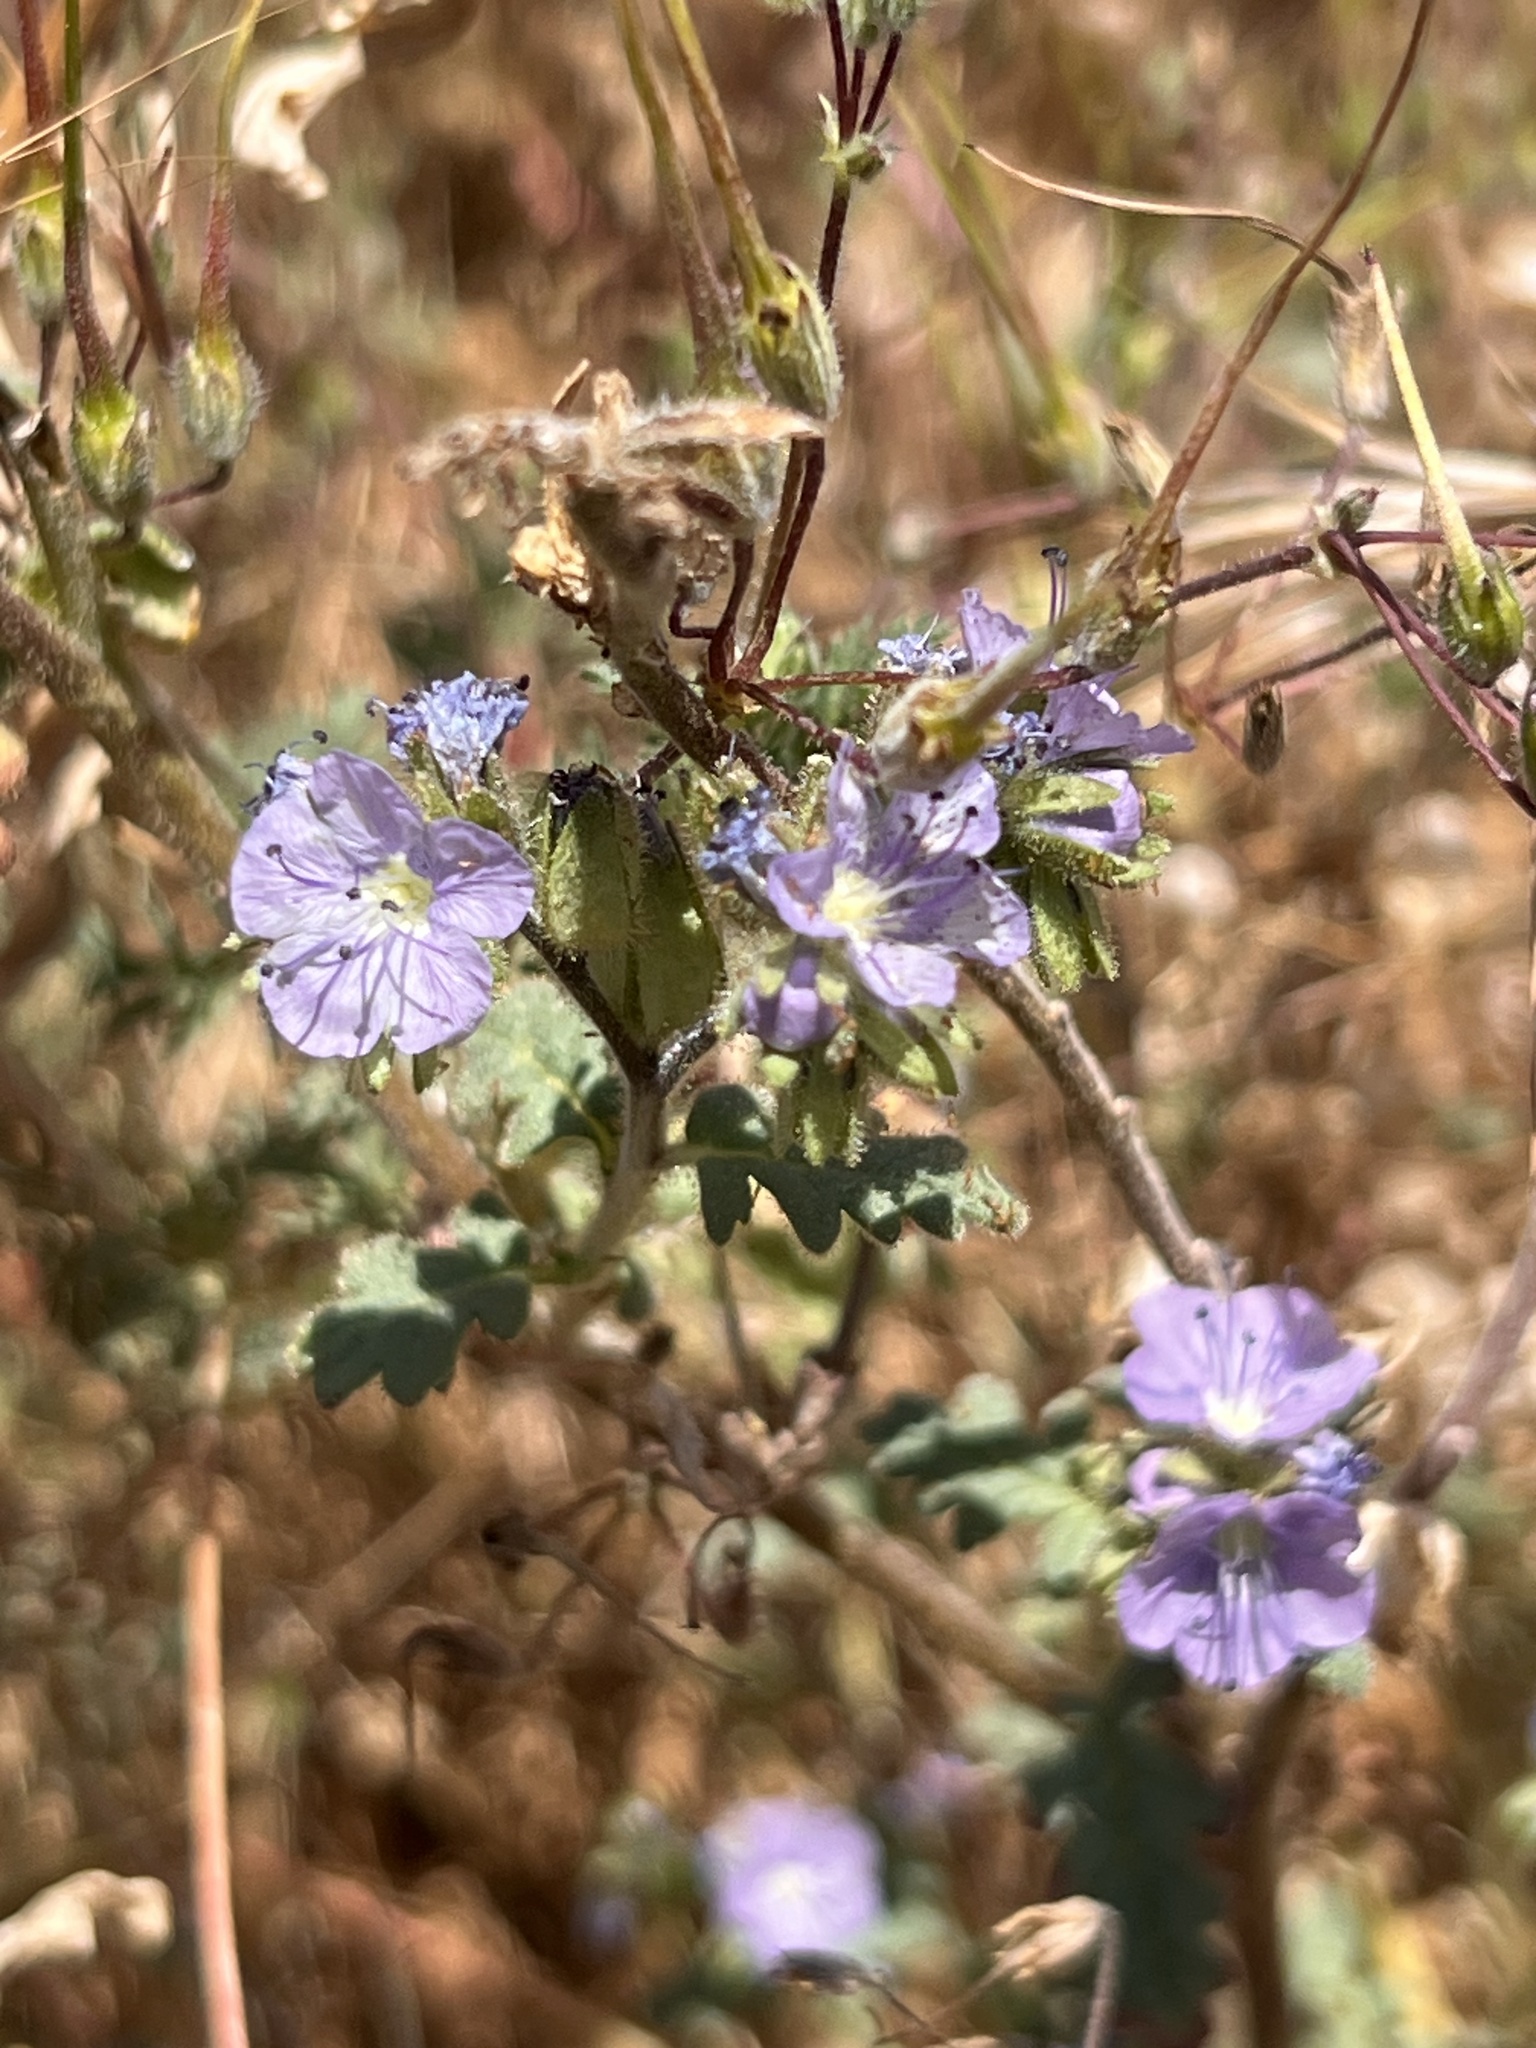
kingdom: Plantae
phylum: Tracheophyta
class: Magnoliopsida
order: Boraginales
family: Hydrophyllaceae
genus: Phacelia
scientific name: Phacelia ciliata
